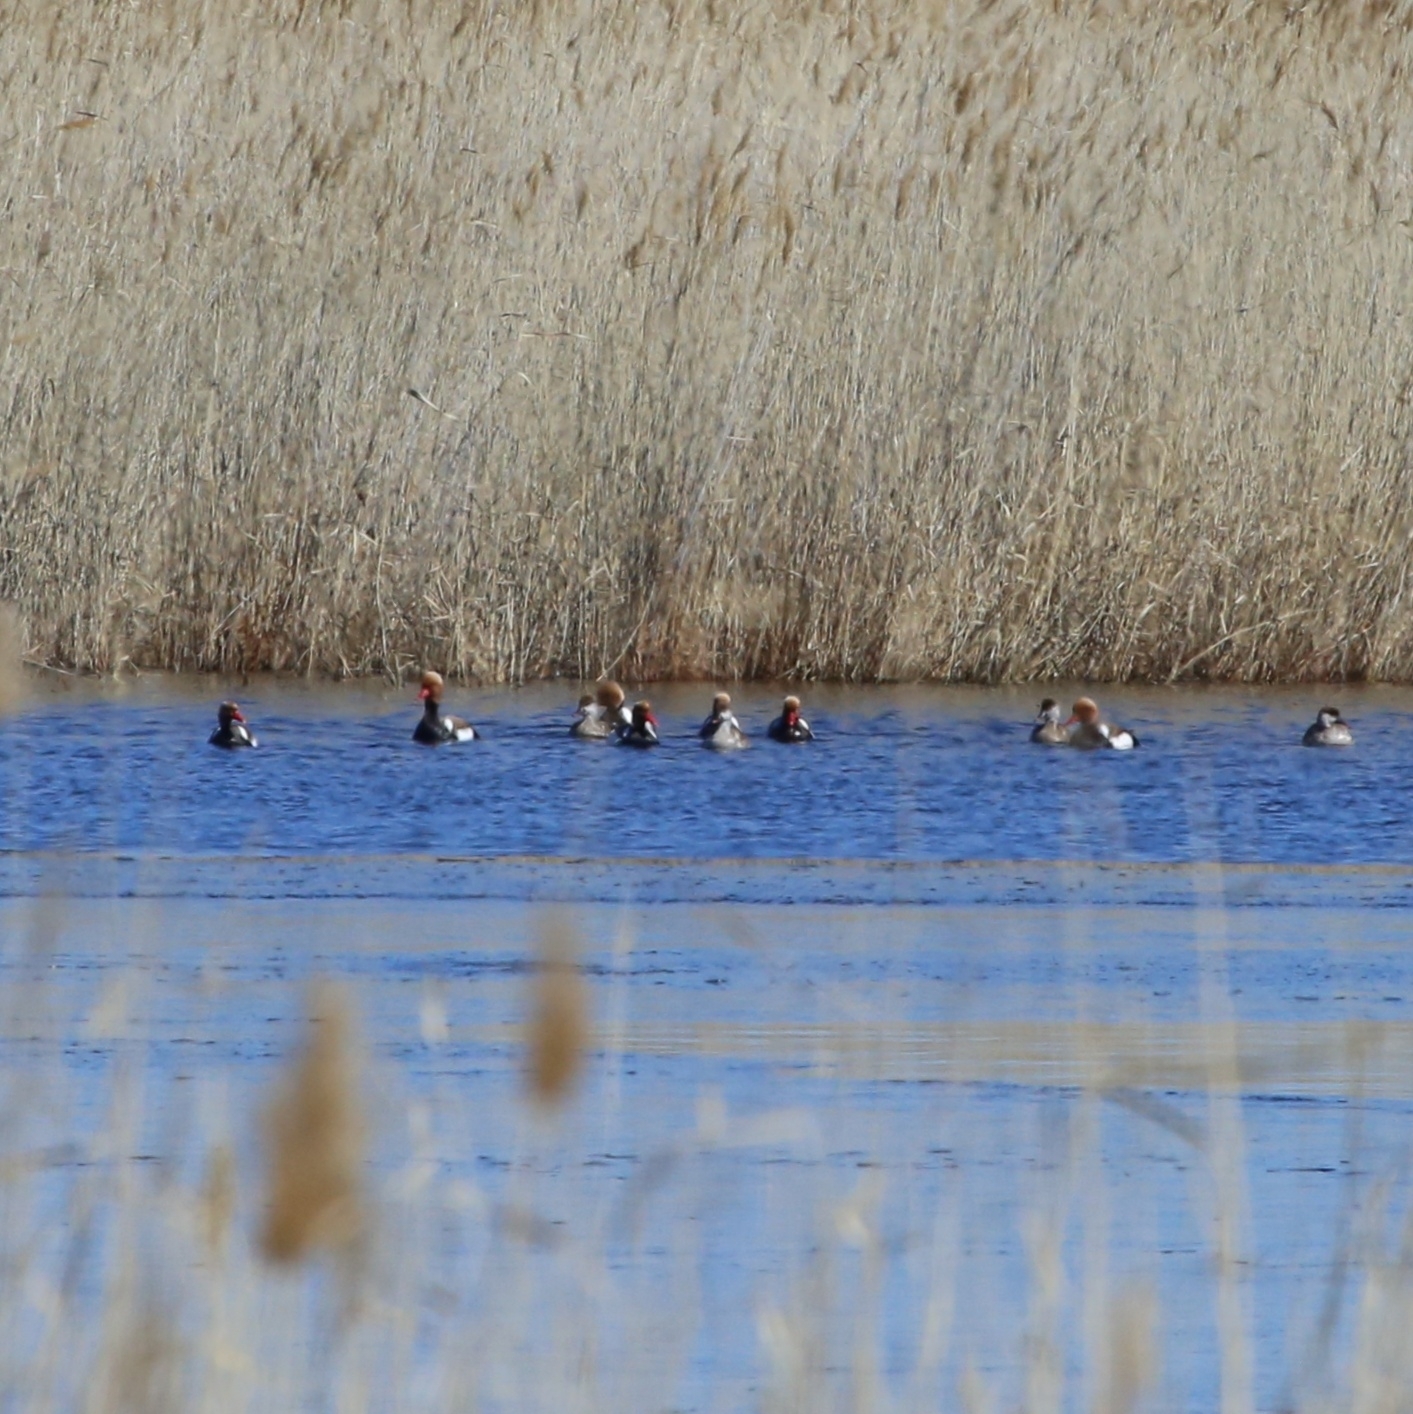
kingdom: Animalia
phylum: Chordata
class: Aves
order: Anseriformes
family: Anatidae
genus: Netta
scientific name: Netta rufina
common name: Red-crested pochard
